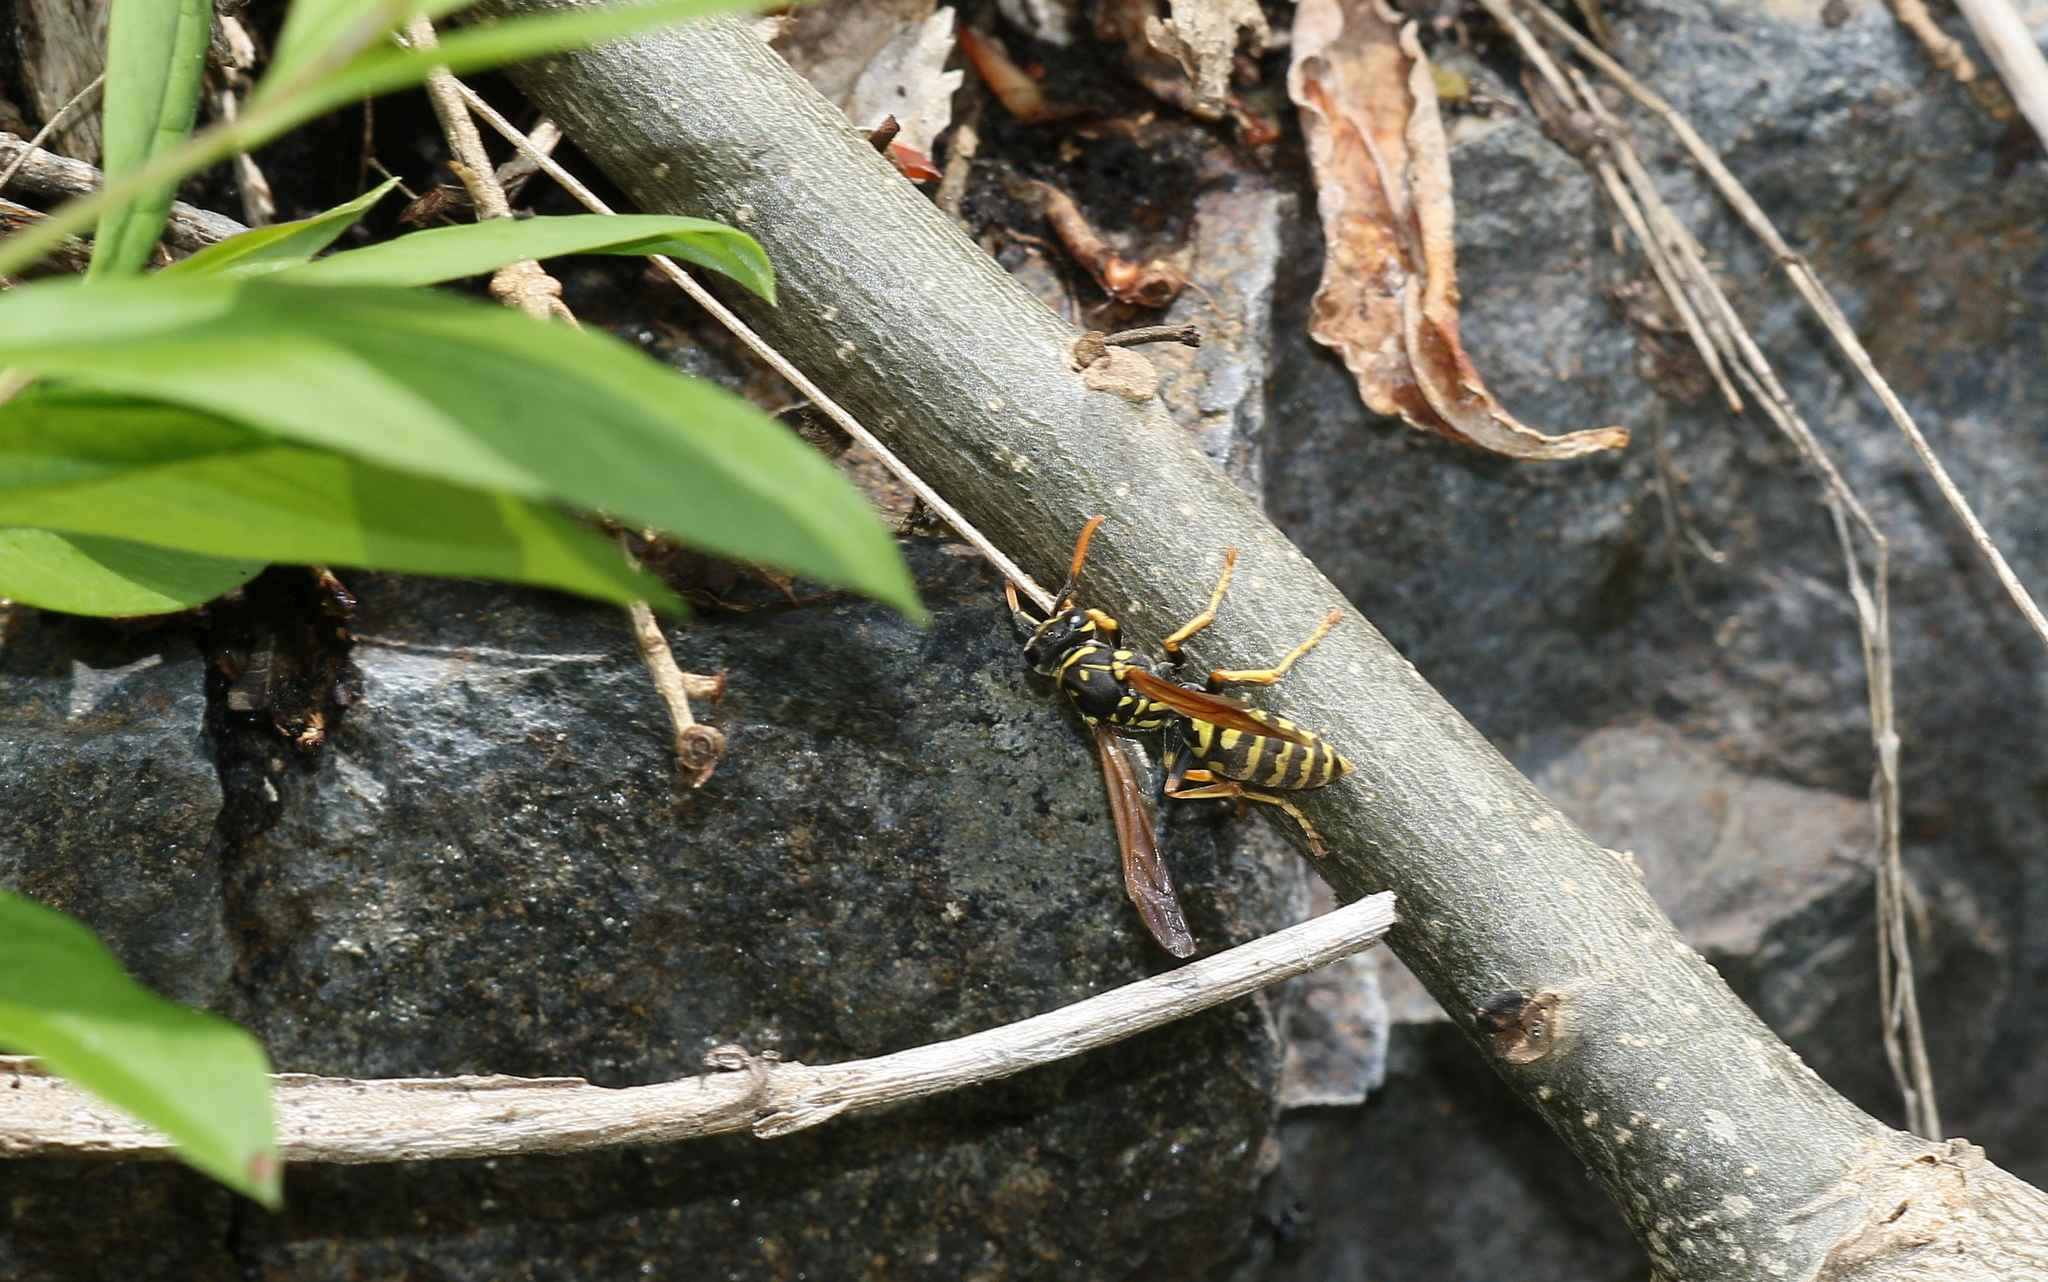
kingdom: Animalia
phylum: Arthropoda
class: Insecta
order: Hymenoptera
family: Eumenidae
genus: Polistes
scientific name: Polistes dominula
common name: Paper wasp
